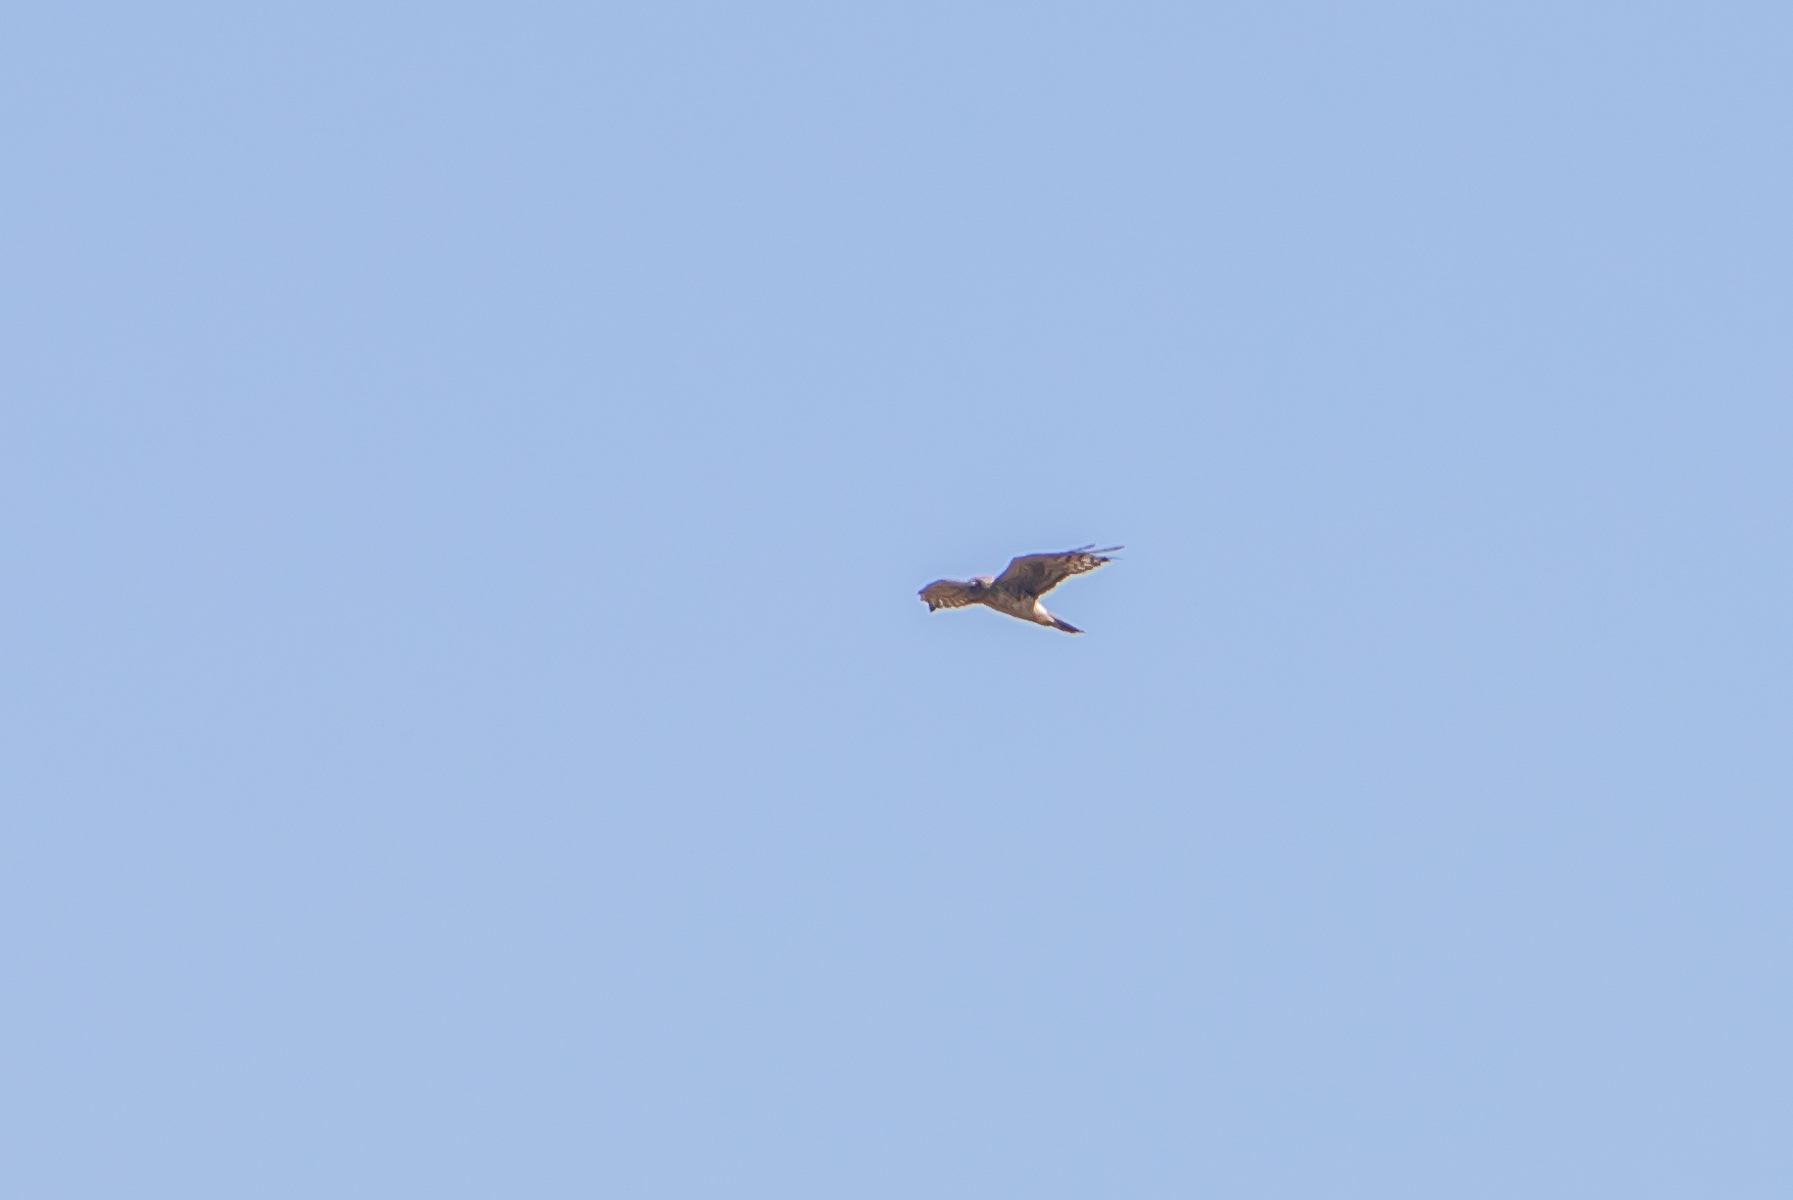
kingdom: Animalia
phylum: Chordata
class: Aves
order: Accipitriformes
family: Accipitridae
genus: Circus
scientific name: Circus cyaneus
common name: Hen harrier
